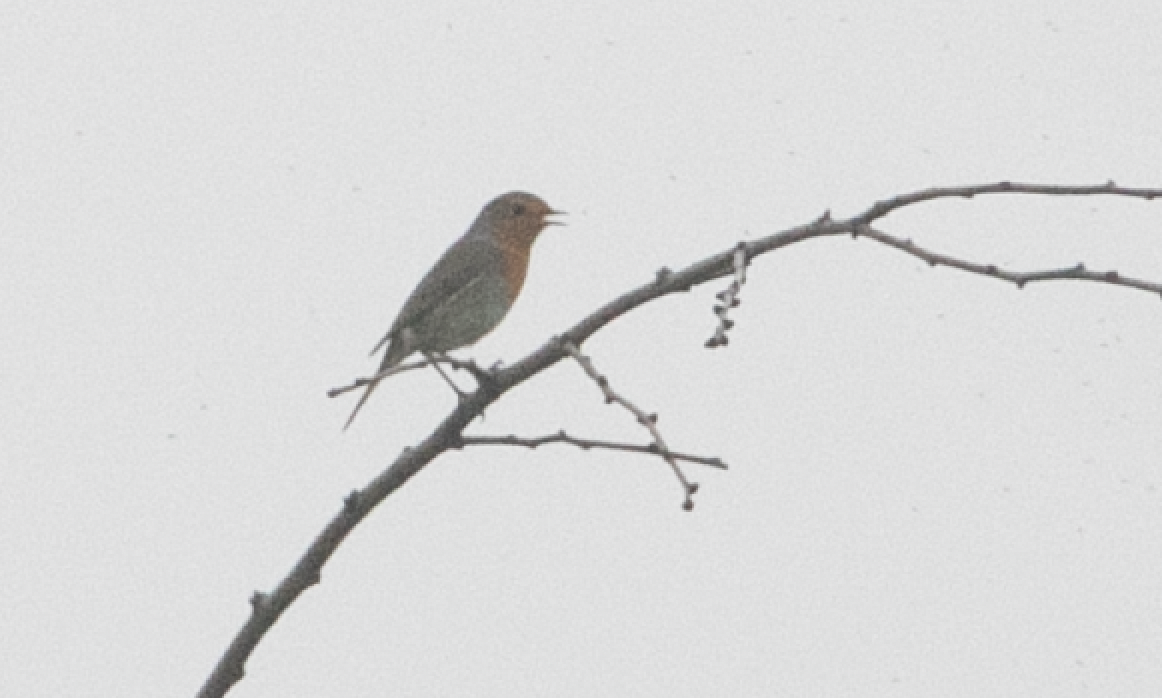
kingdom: Animalia
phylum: Chordata
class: Aves
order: Passeriformes
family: Muscicapidae
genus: Erithacus
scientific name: Erithacus rubecula
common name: European robin
